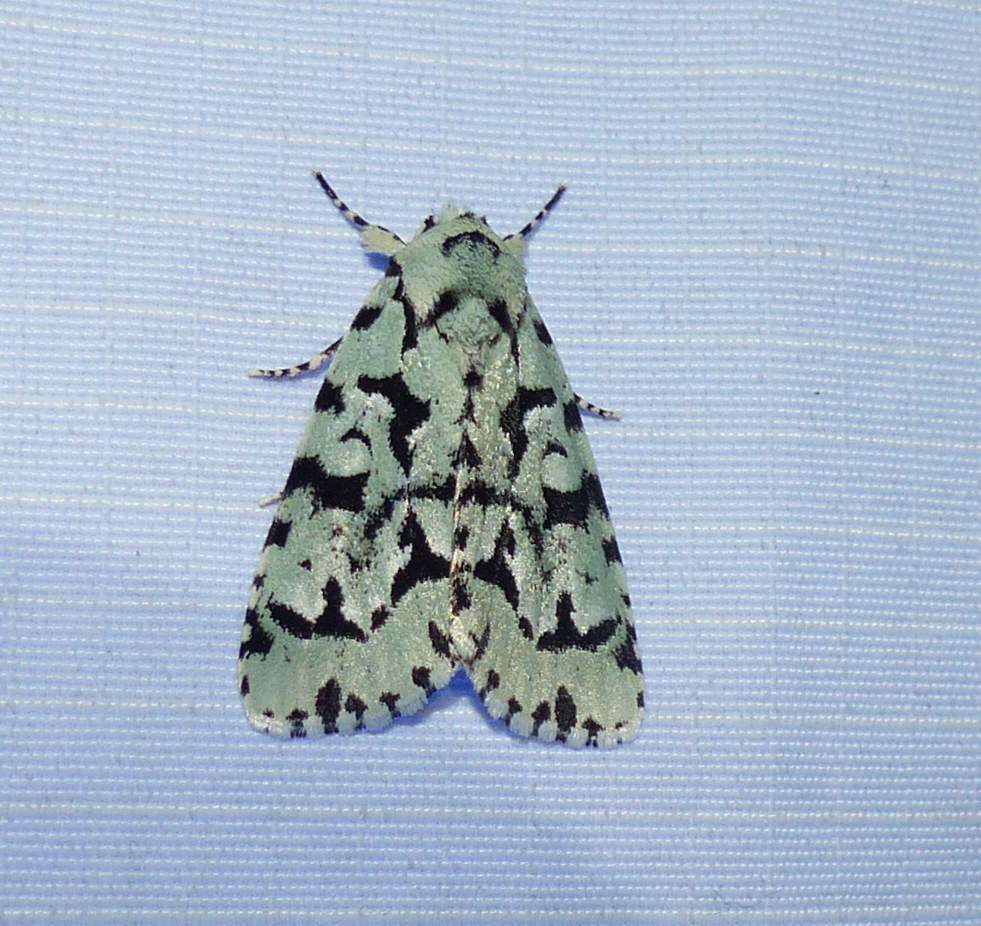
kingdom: Animalia
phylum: Arthropoda
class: Insecta
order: Lepidoptera
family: Noctuidae
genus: Acronicta
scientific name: Acronicta fallax
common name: Green marvel
